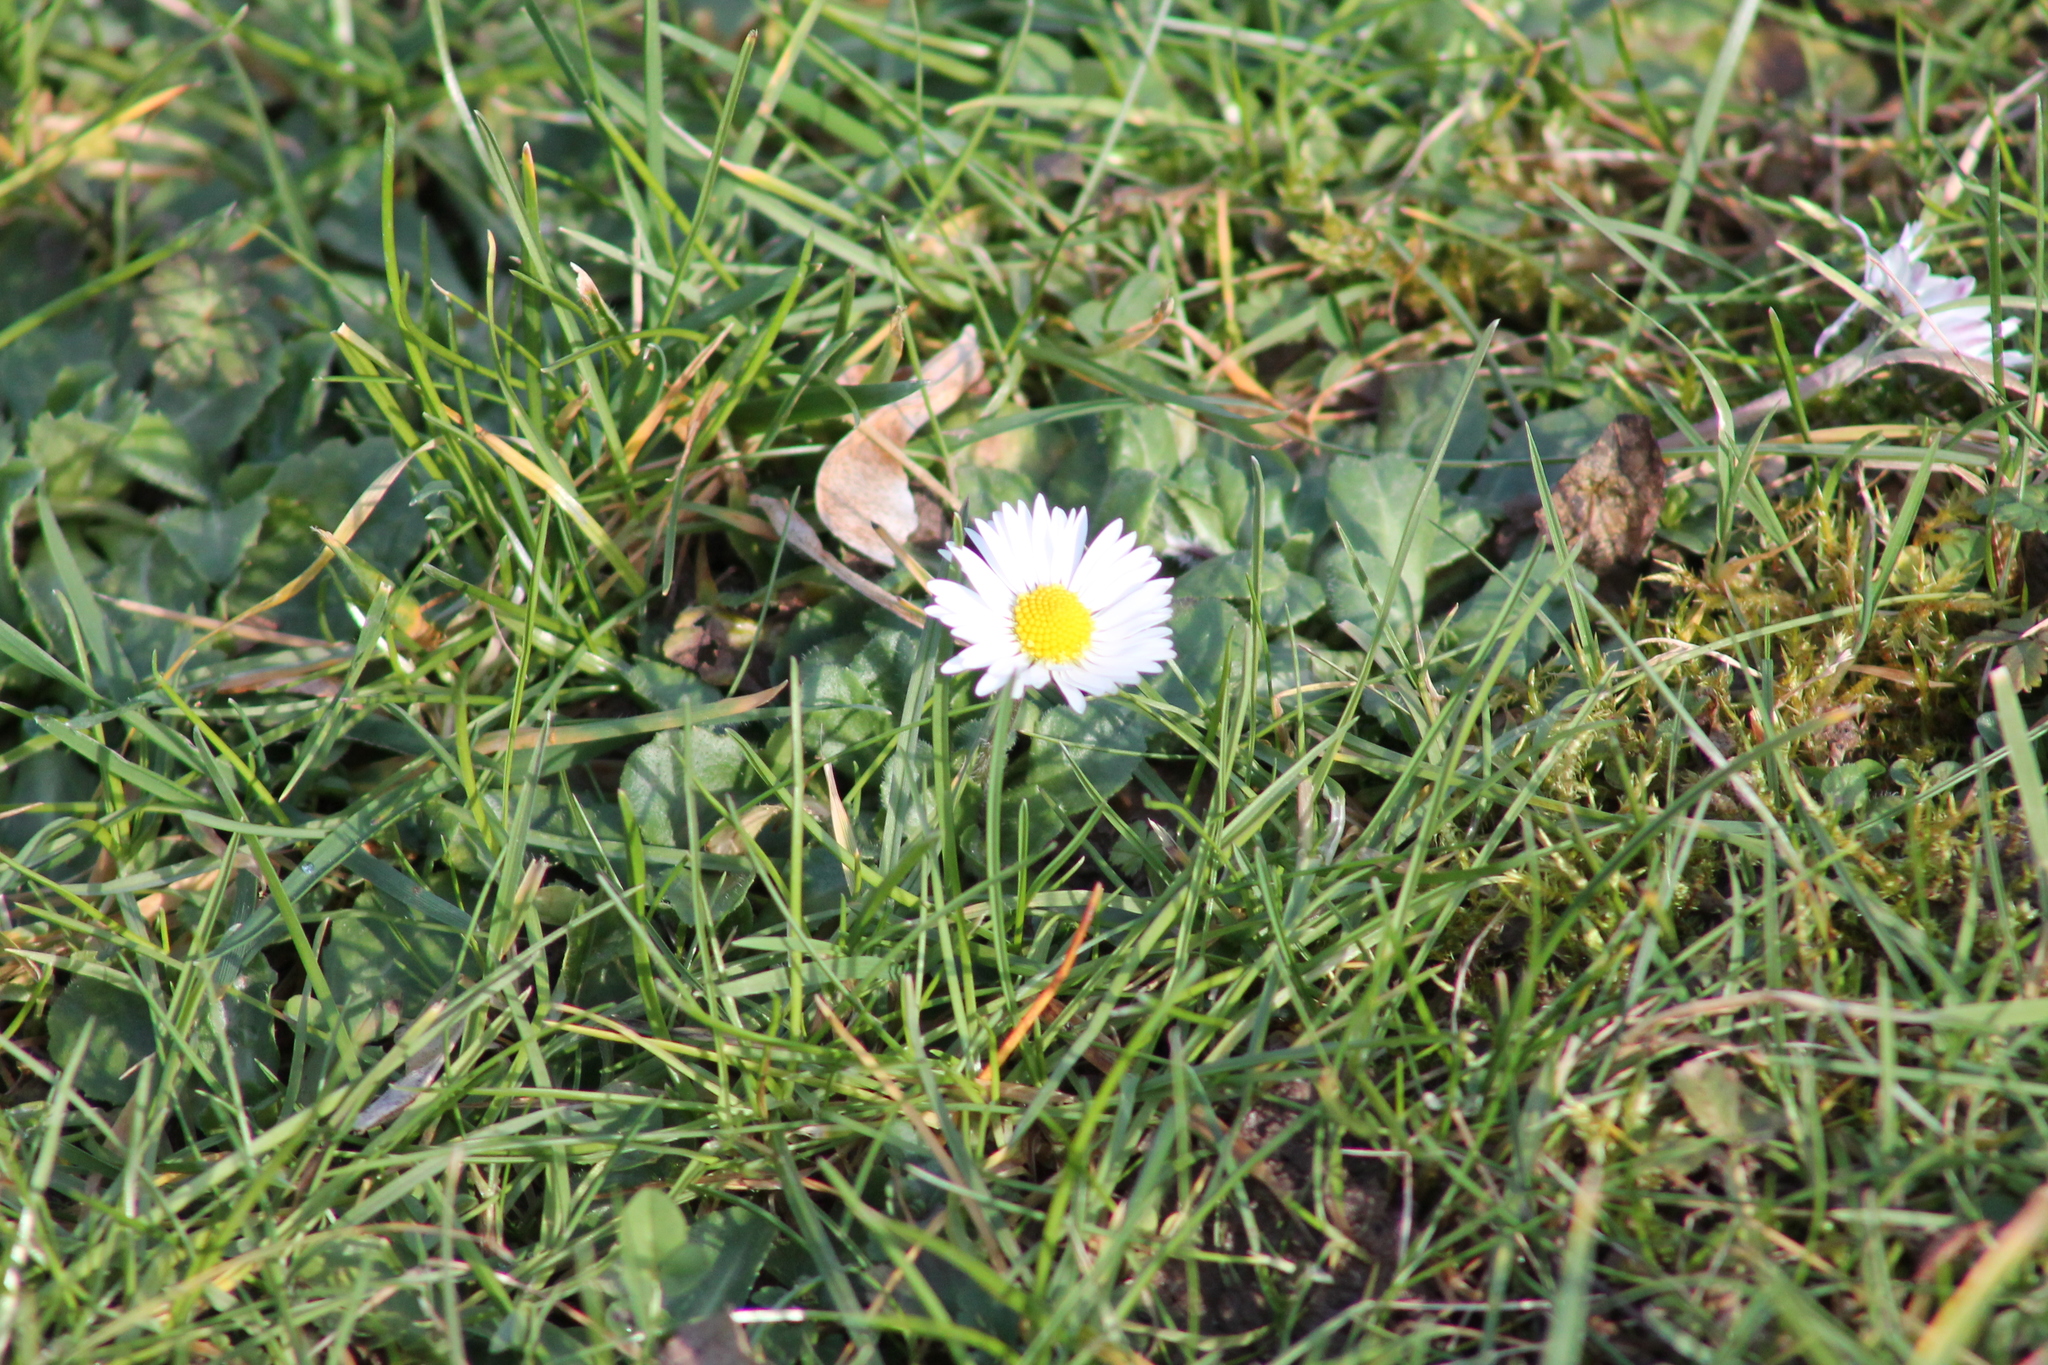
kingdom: Plantae
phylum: Tracheophyta
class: Magnoliopsida
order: Asterales
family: Asteraceae
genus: Bellis
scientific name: Bellis perennis
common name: Lawndaisy
